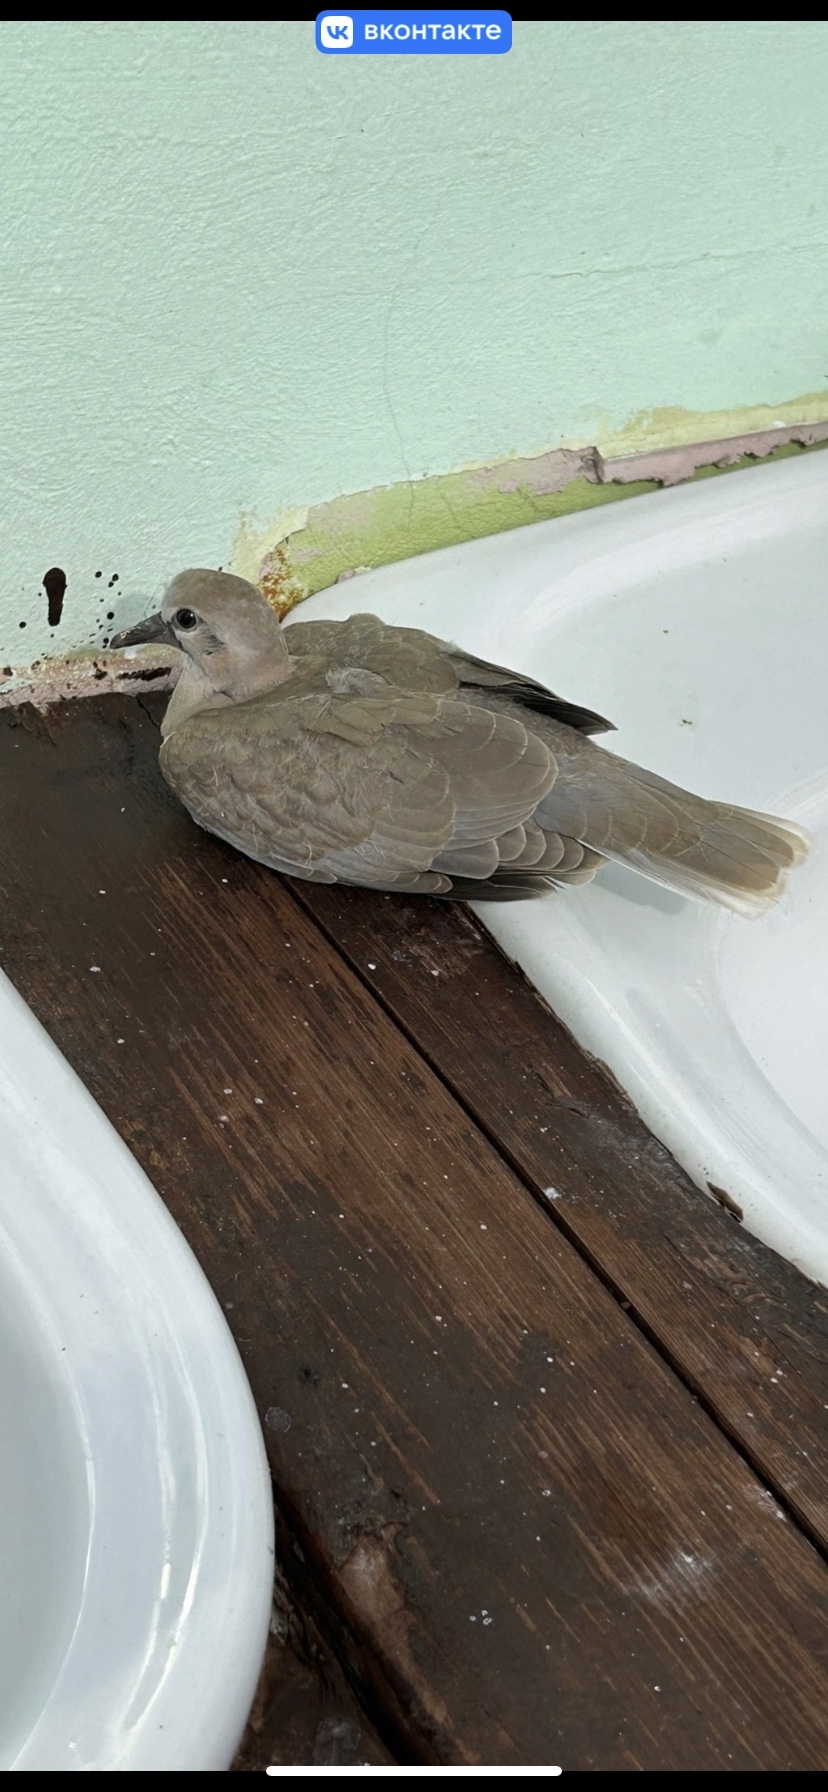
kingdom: Animalia
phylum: Chordata
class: Aves
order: Columbiformes
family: Columbidae
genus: Streptopelia
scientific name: Streptopelia decaocto
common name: Eurasian collared dove
